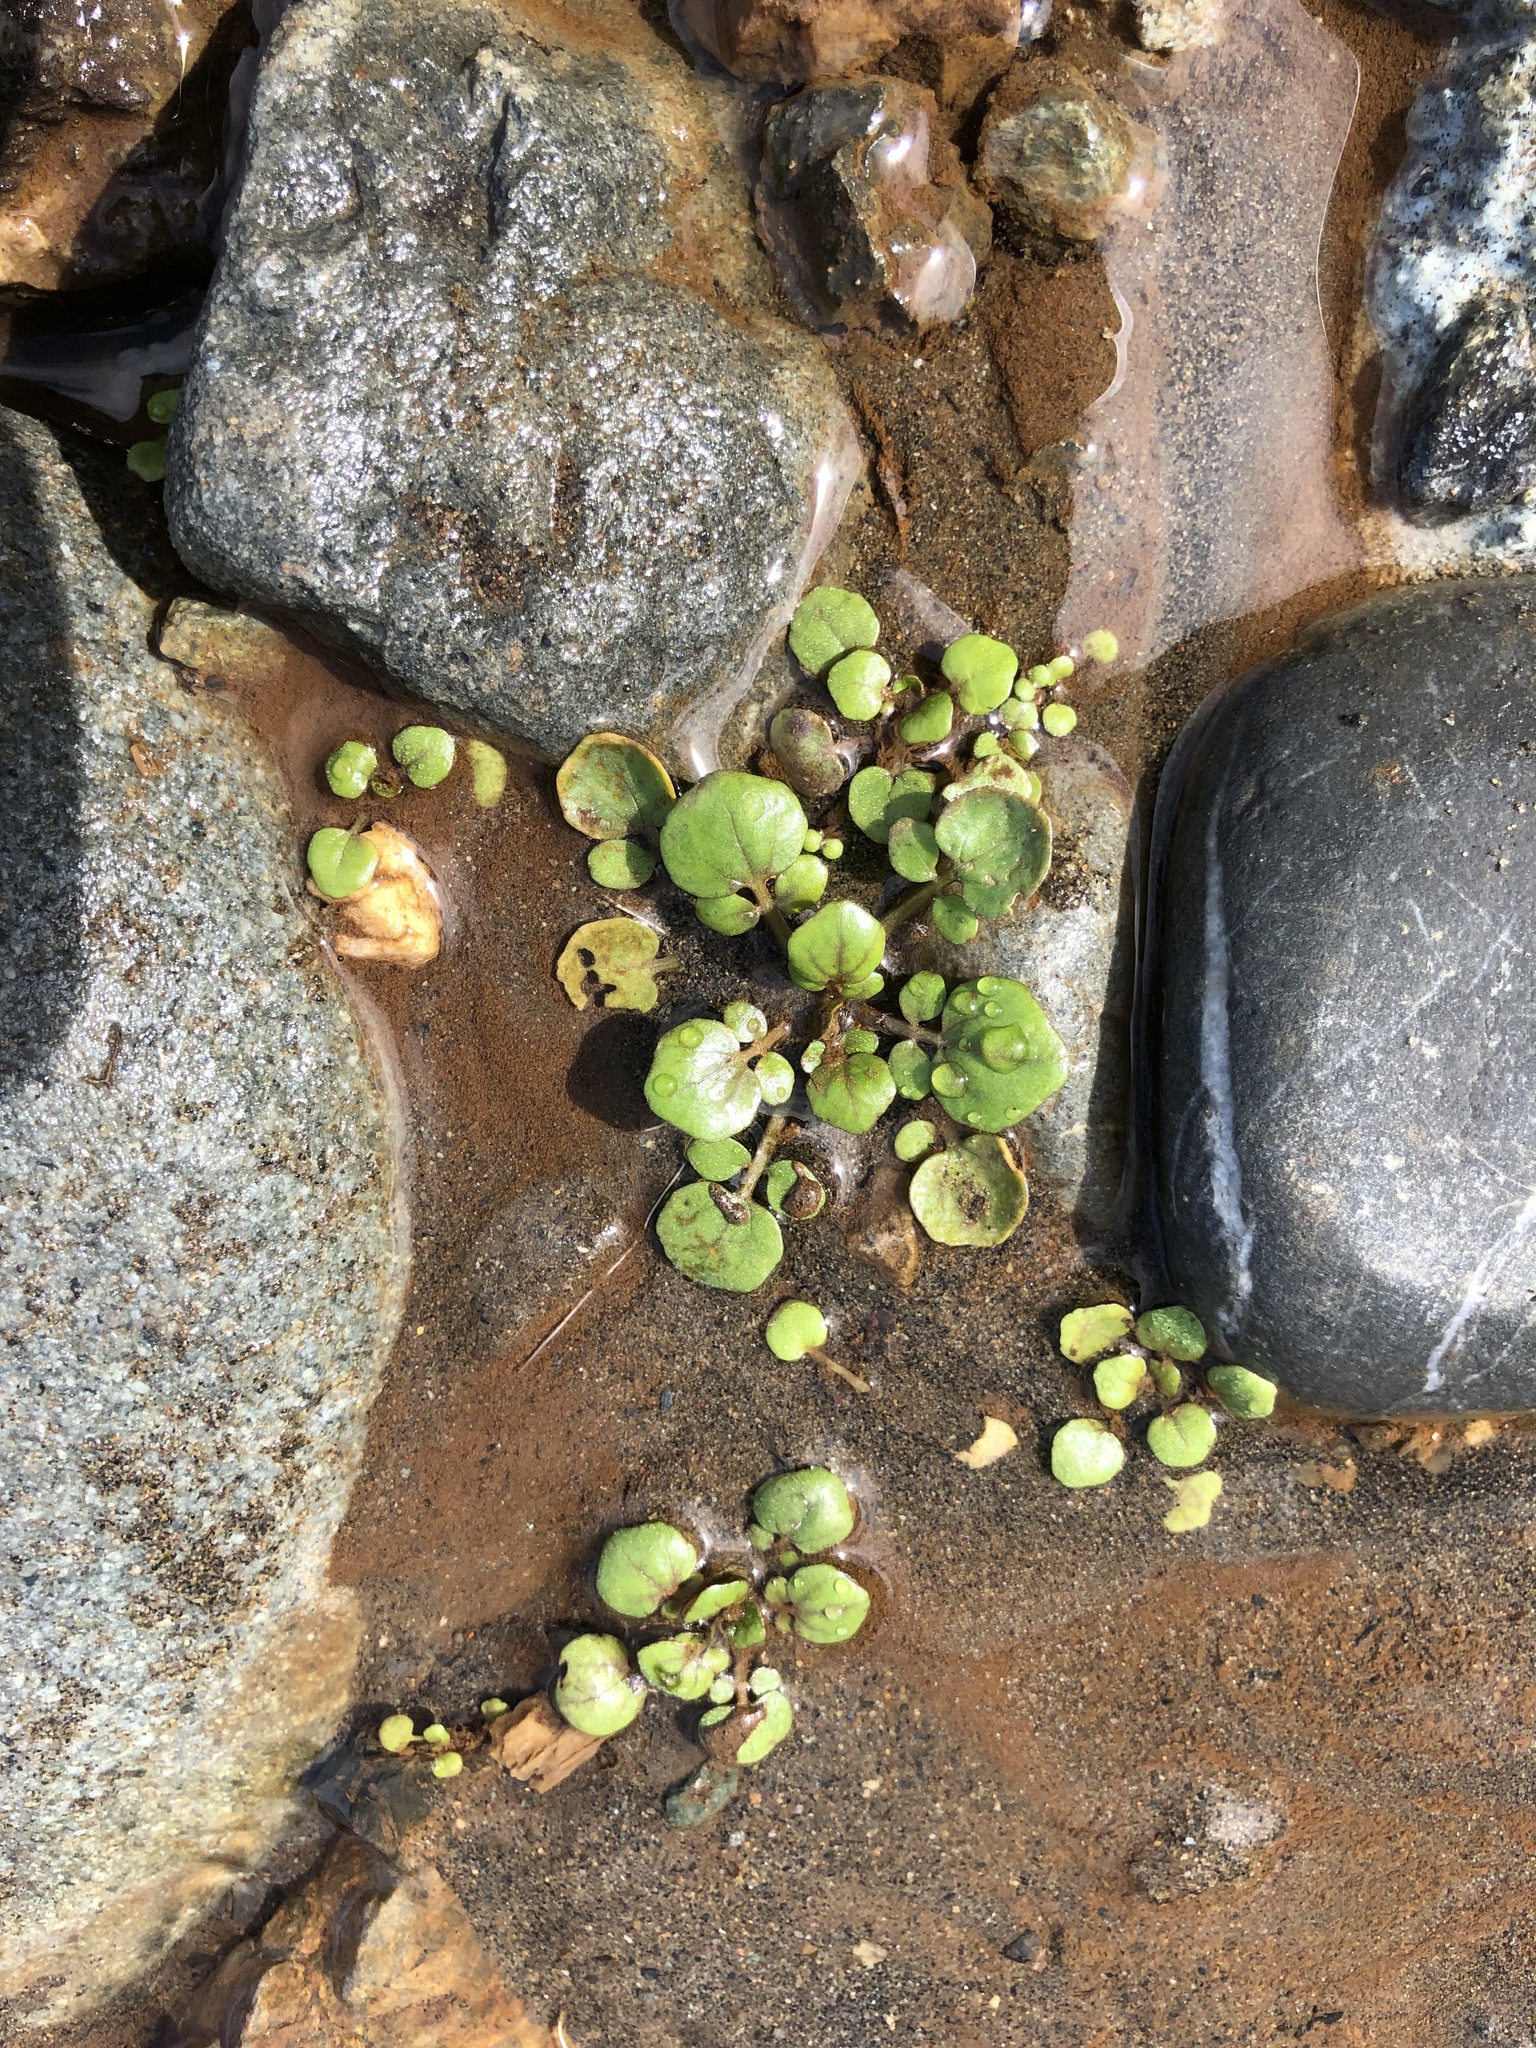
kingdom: Plantae
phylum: Tracheophyta
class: Magnoliopsida
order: Brassicales
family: Brassicaceae
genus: Nasturtium
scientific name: Nasturtium officinale
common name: Watercress
